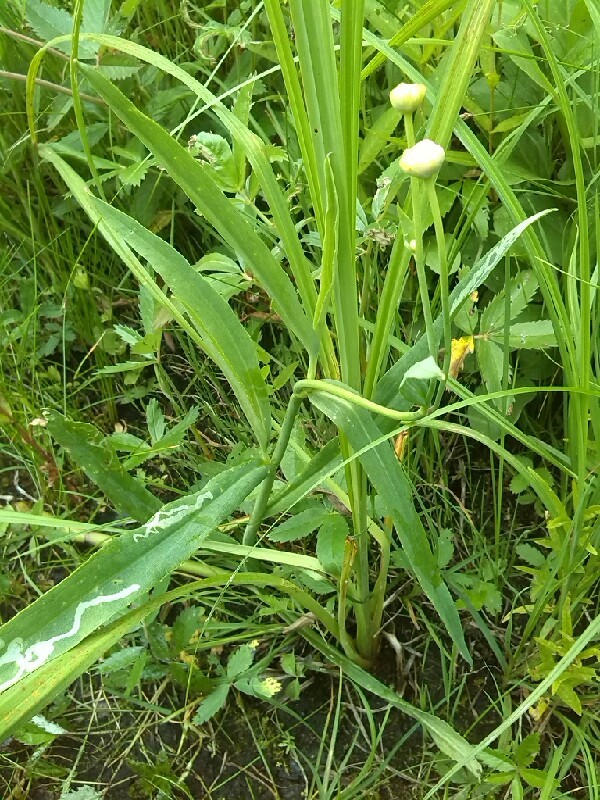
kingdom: Plantae
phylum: Tracheophyta
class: Magnoliopsida
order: Ranunculales
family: Ranunculaceae
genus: Ranunculus
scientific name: Ranunculus lingua
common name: Greater spearwort
